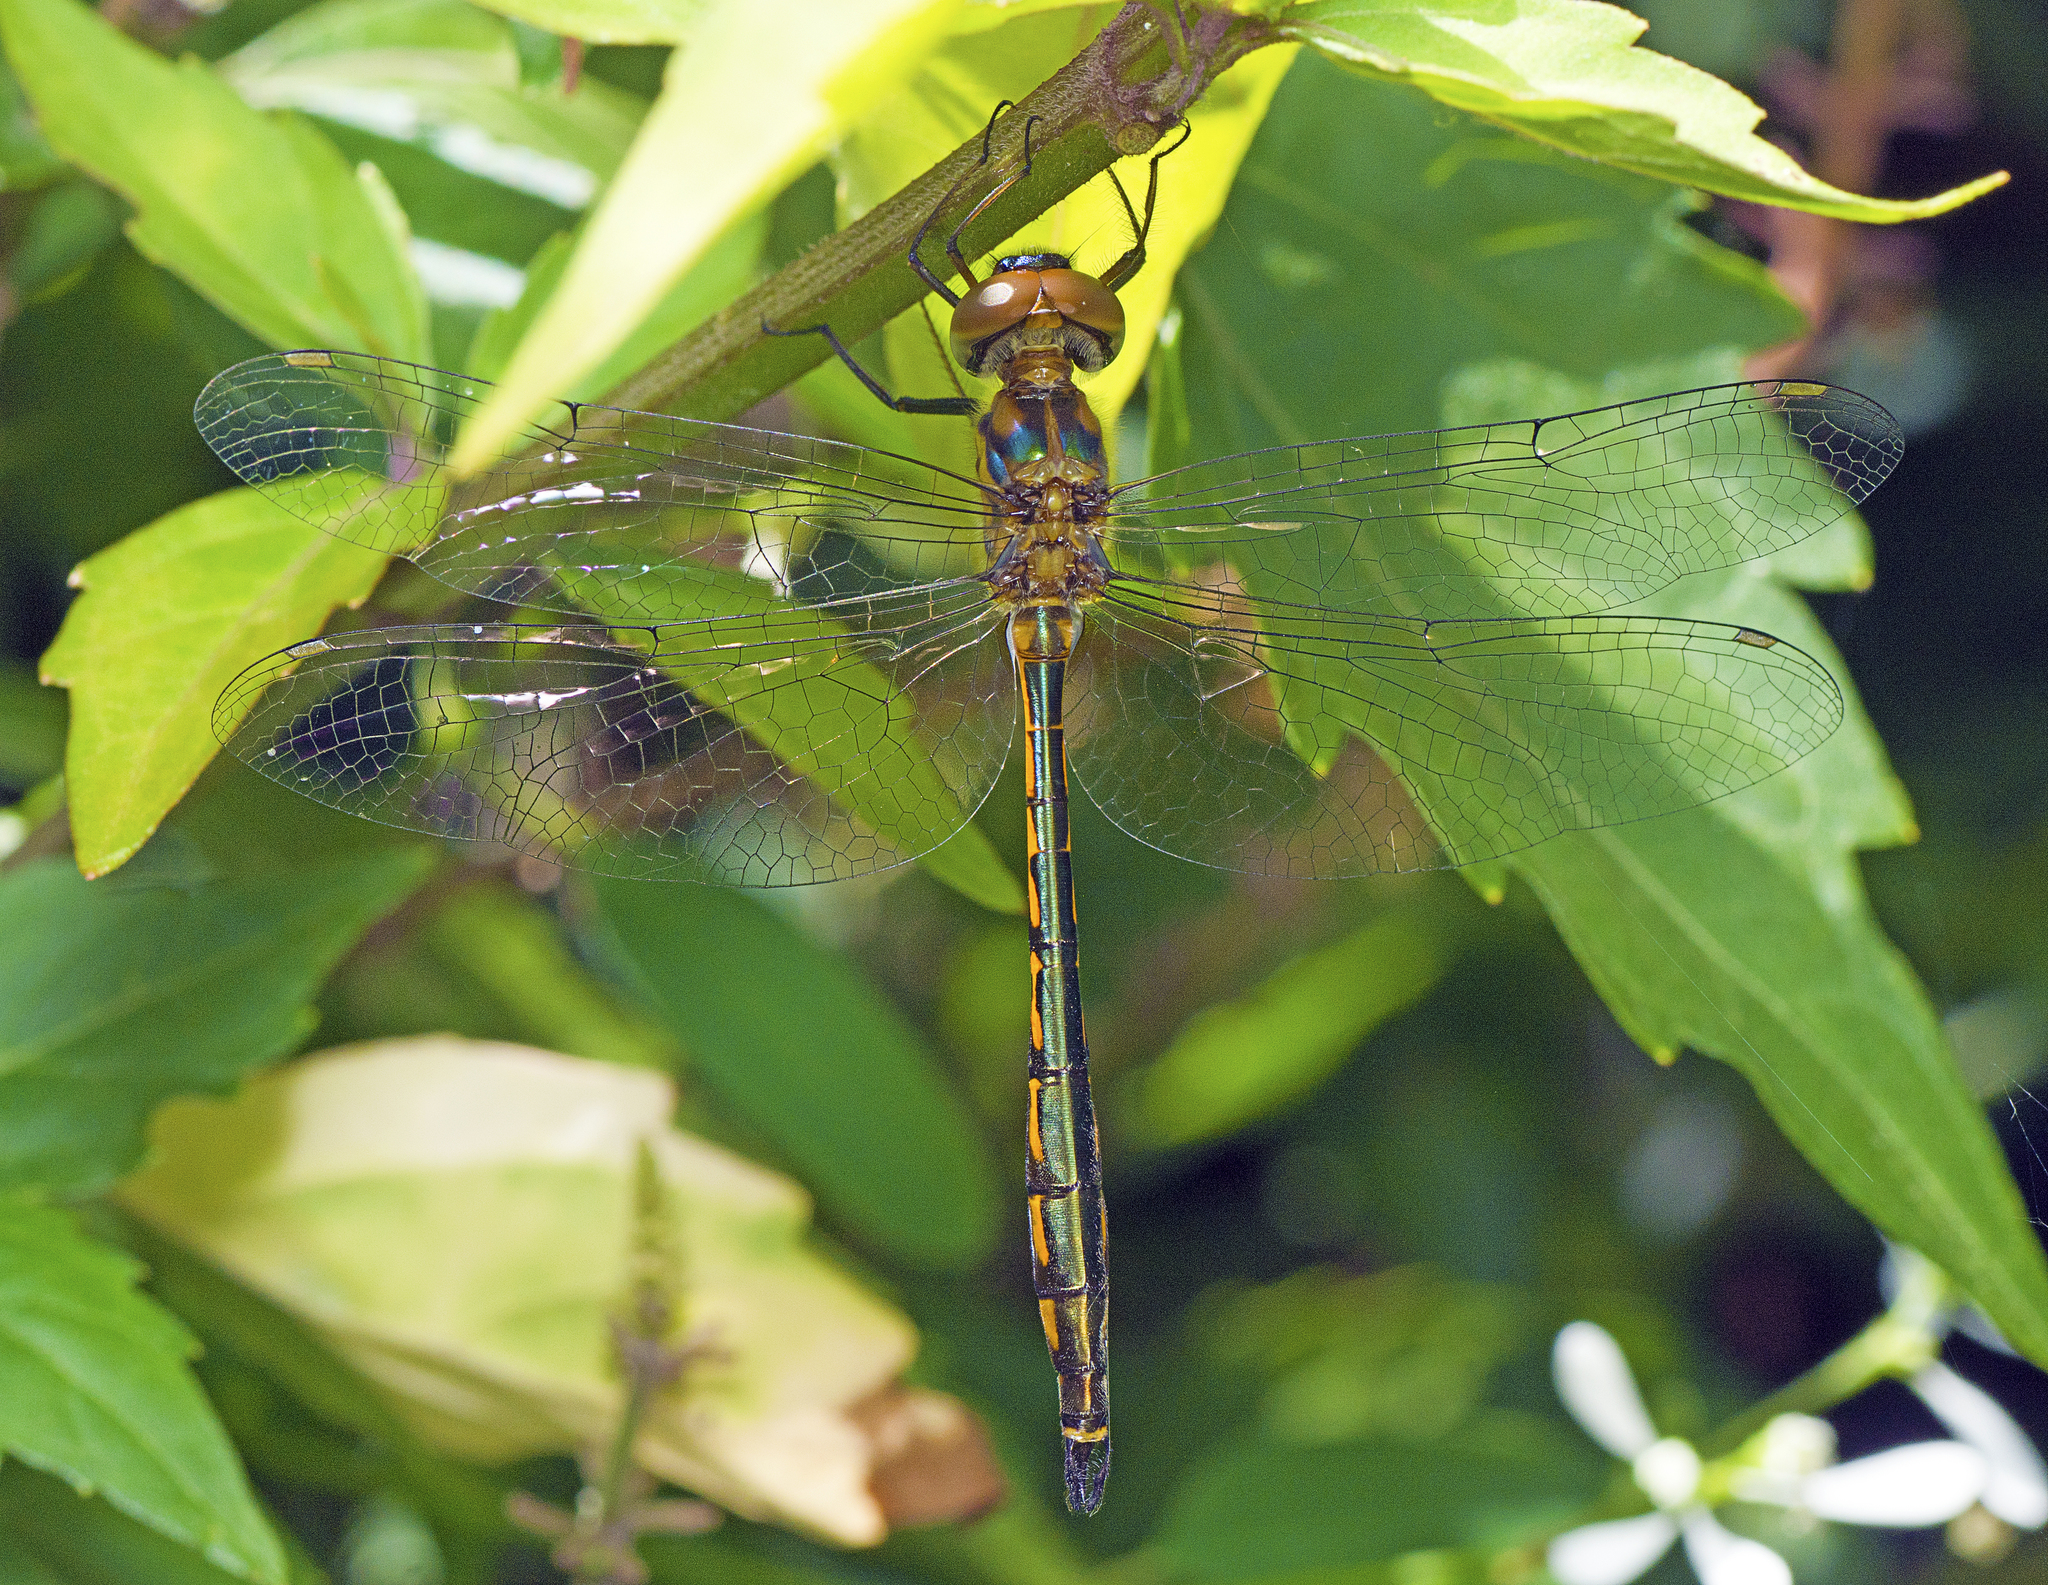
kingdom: Animalia
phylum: Arthropoda
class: Insecta
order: Odonata
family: Corduliidae
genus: Hemicordulia
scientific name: Hemicordulia continentalis
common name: Fat-bellied emerald
